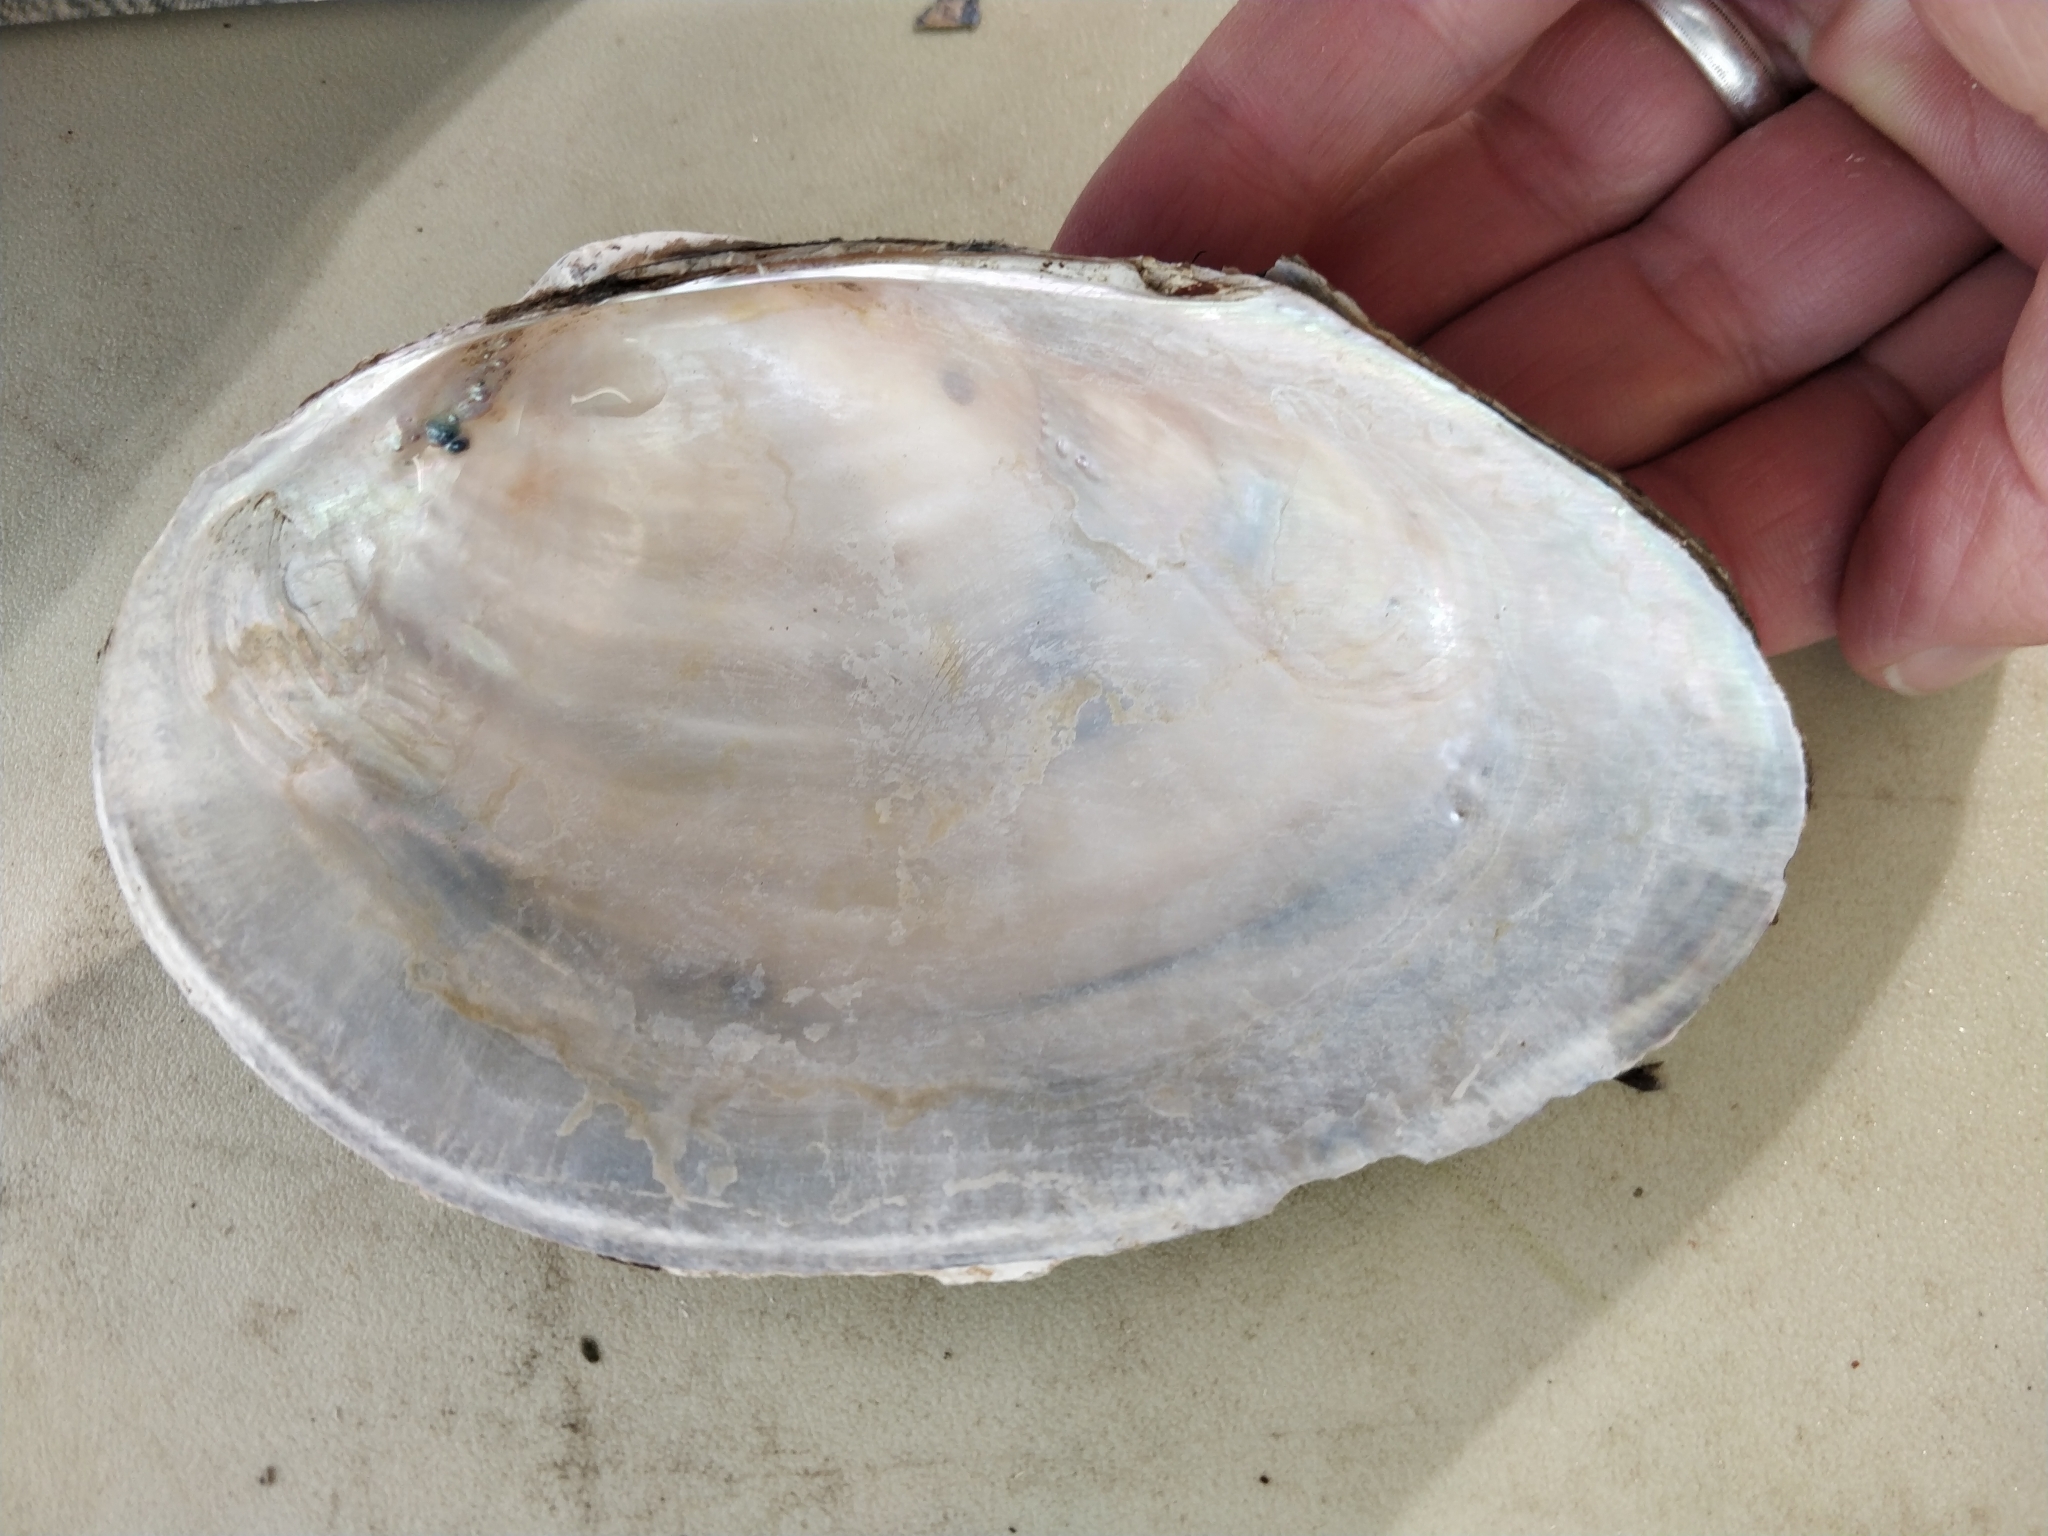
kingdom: Animalia
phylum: Mollusca
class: Bivalvia
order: Unionida
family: Unionidae
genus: Pyganodon
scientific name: Pyganodon grandis
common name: Giant floater
